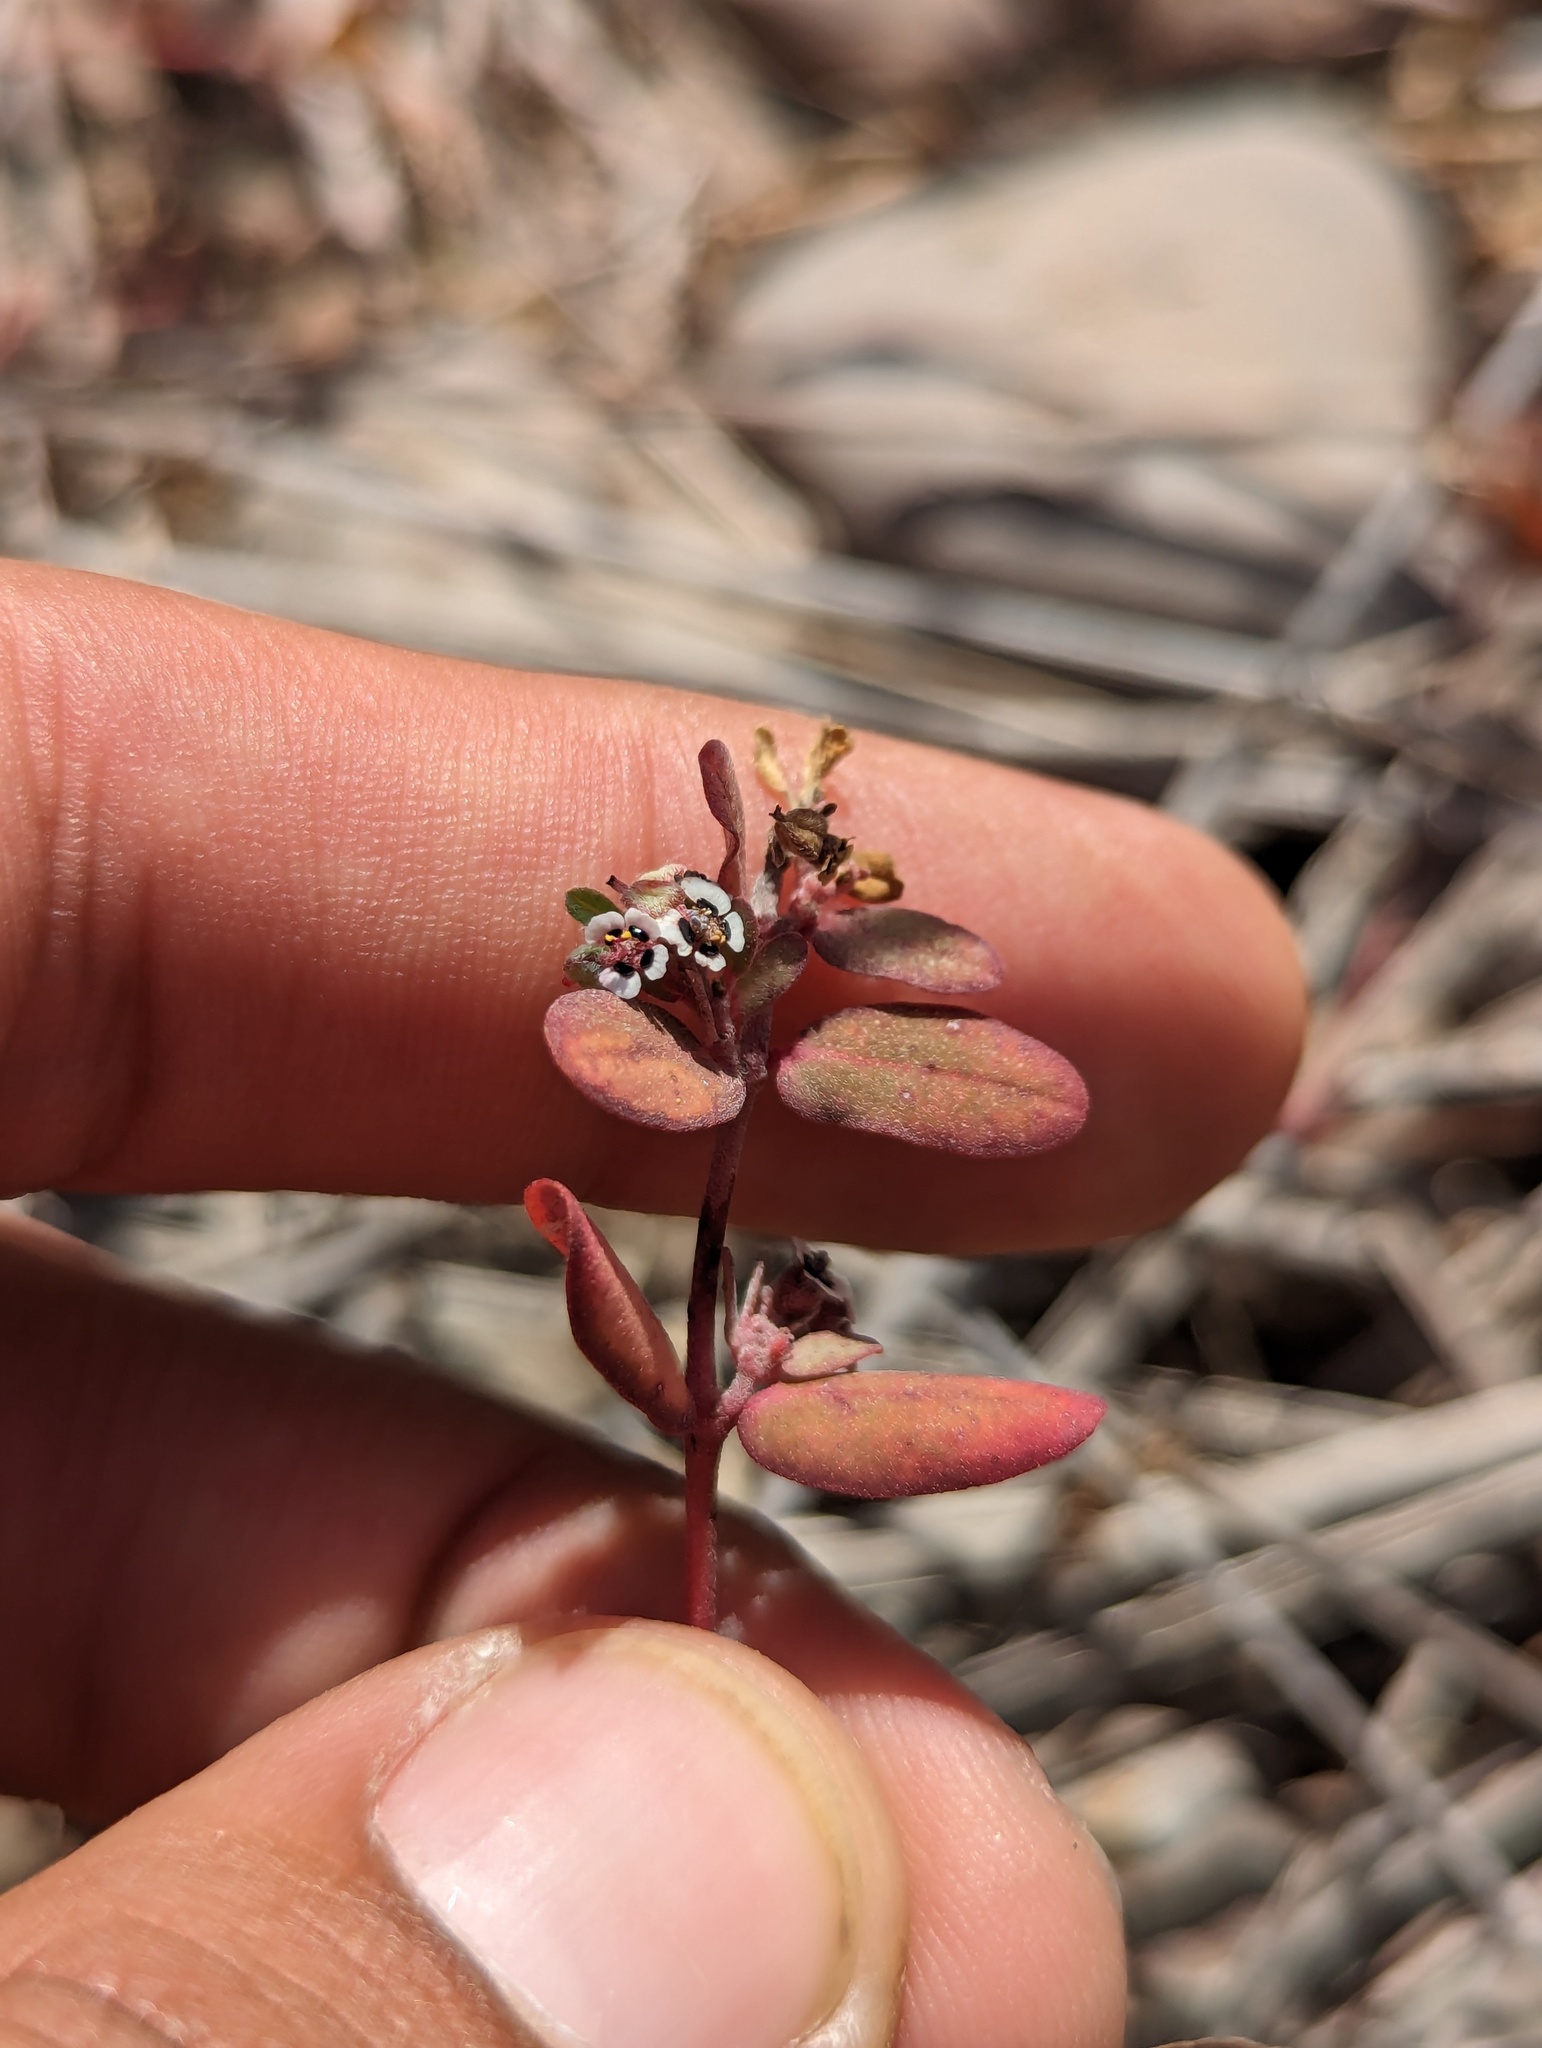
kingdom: Plantae
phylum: Tracheophyta
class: Magnoliopsida
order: Malpighiales
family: Euphorbiaceae
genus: Euphorbia
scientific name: Euphorbia pediculifera
